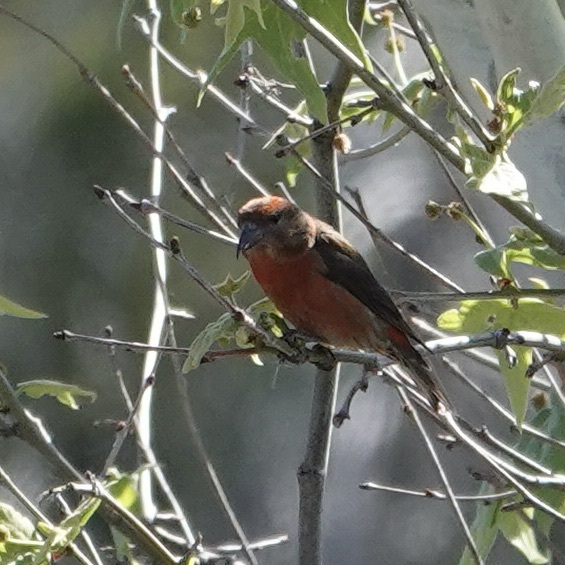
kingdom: Animalia
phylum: Chordata
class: Aves
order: Passeriformes
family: Fringillidae
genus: Loxia
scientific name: Loxia curvirostra
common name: Red crossbill
